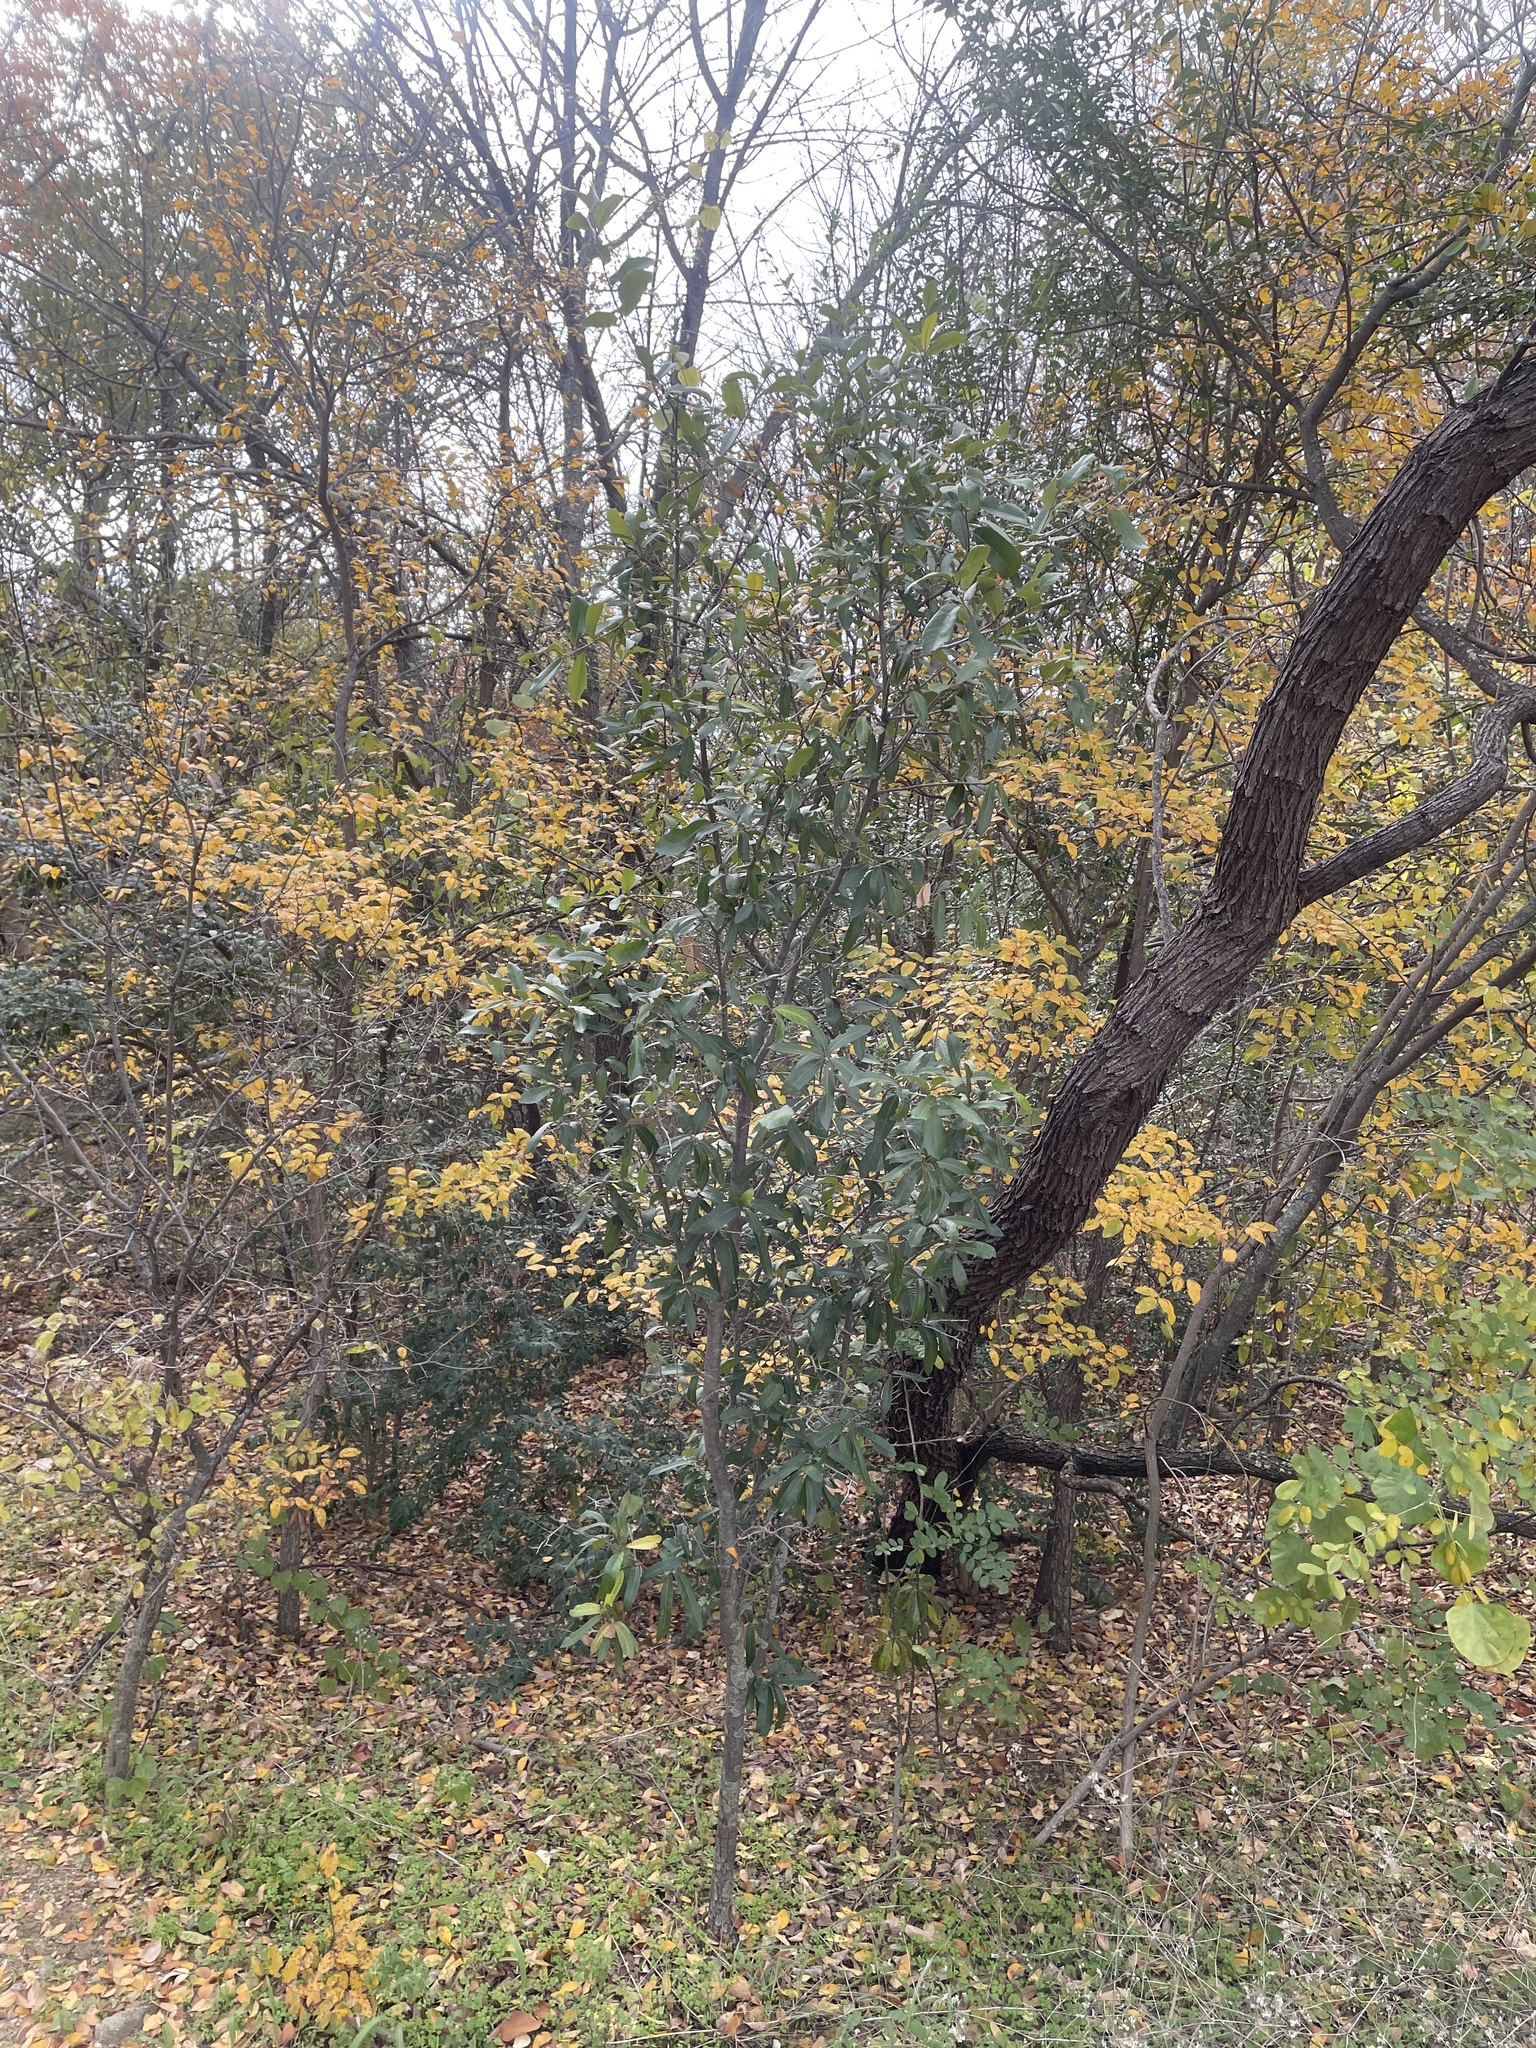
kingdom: Plantae
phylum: Tracheophyta
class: Magnoliopsida
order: Fagales
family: Fagaceae
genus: Quercus
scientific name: Quercus fusiformis
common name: Texas live oak
